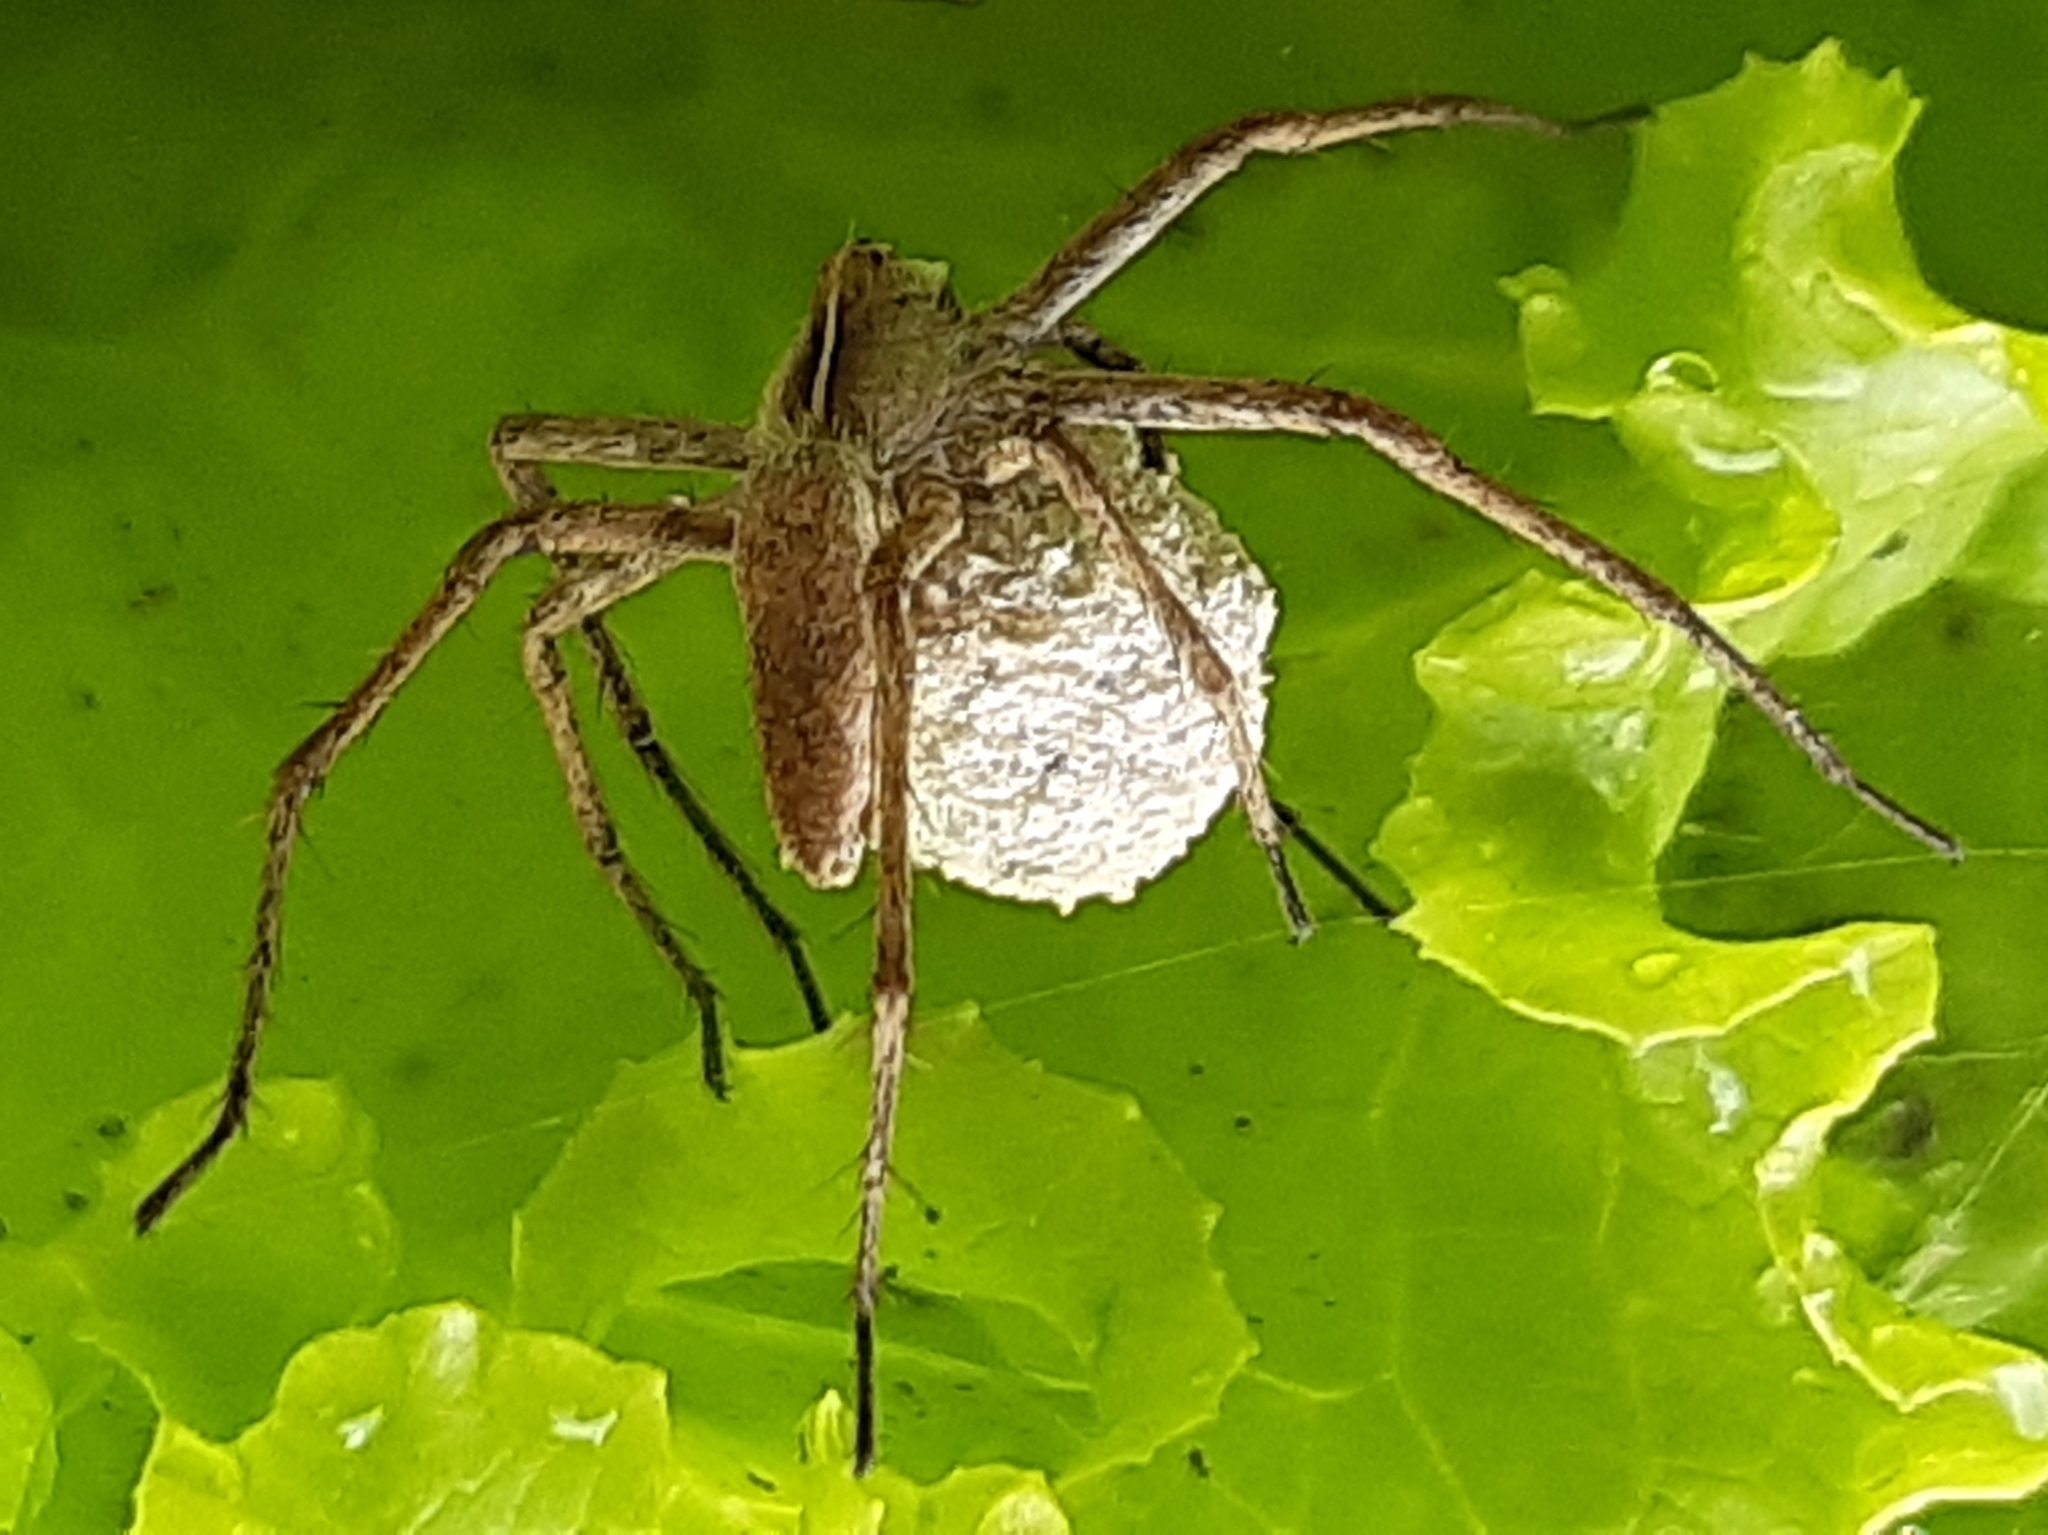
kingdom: Animalia
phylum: Arthropoda
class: Arachnida
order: Araneae
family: Pisauridae
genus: Pisaura
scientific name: Pisaura mirabilis
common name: Tent spider
